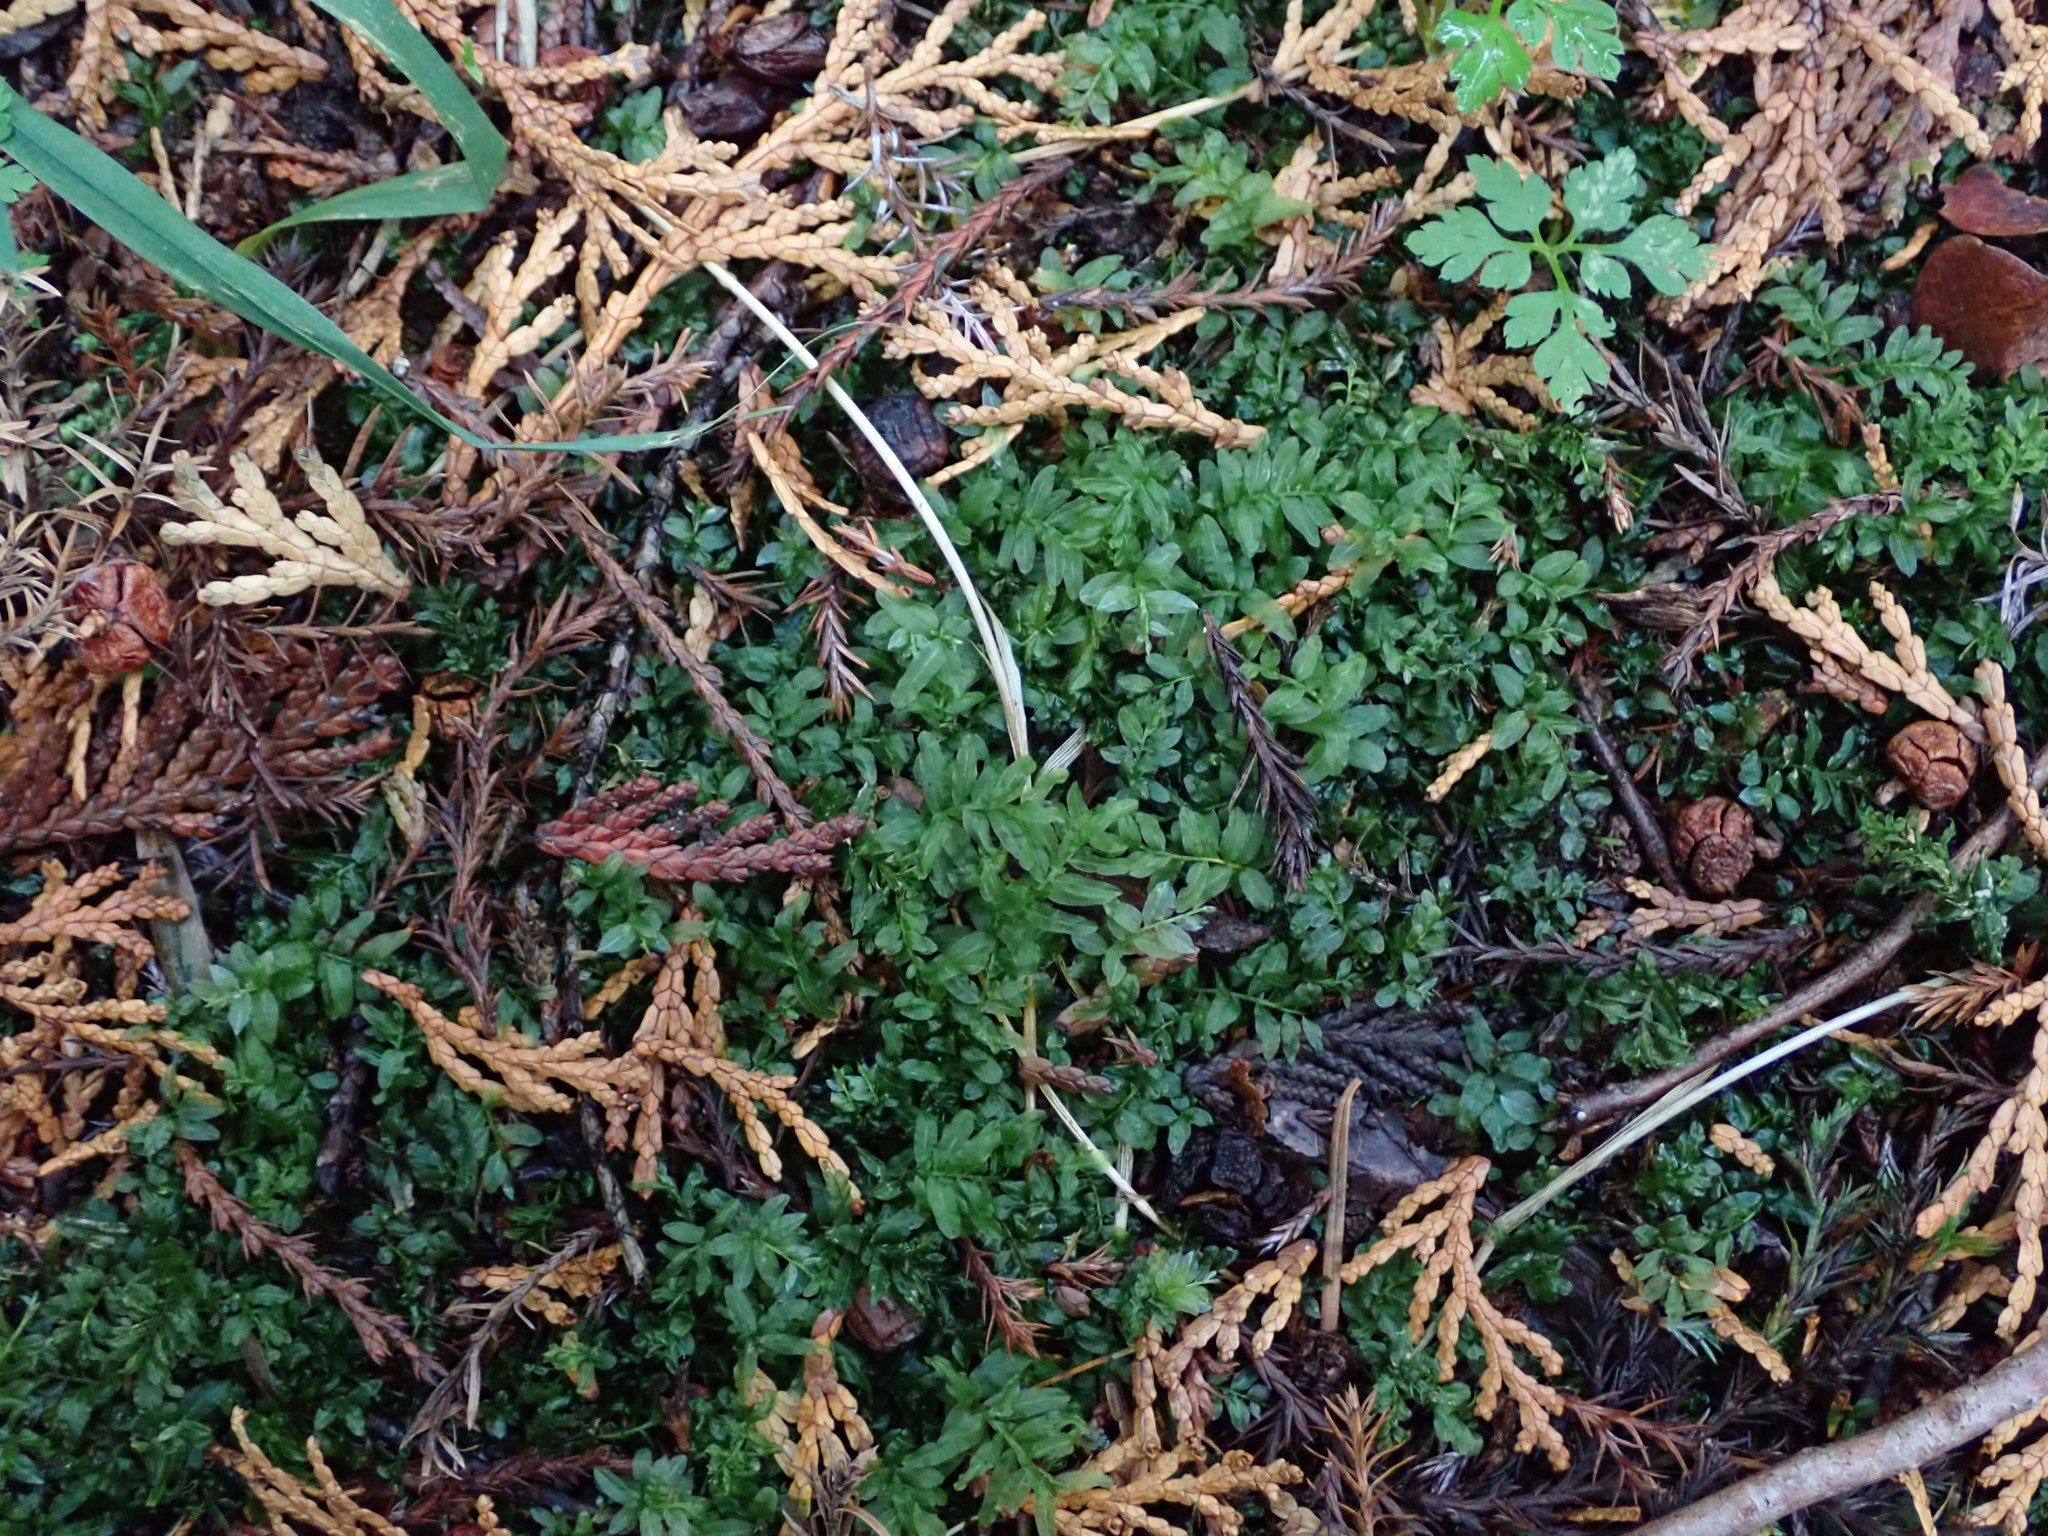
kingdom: Plantae
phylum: Bryophyta
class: Bryopsida
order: Bryales
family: Mniaceae
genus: Plagiomnium
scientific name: Plagiomnium undulatum
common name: Hart's-tongue thyme-moss
